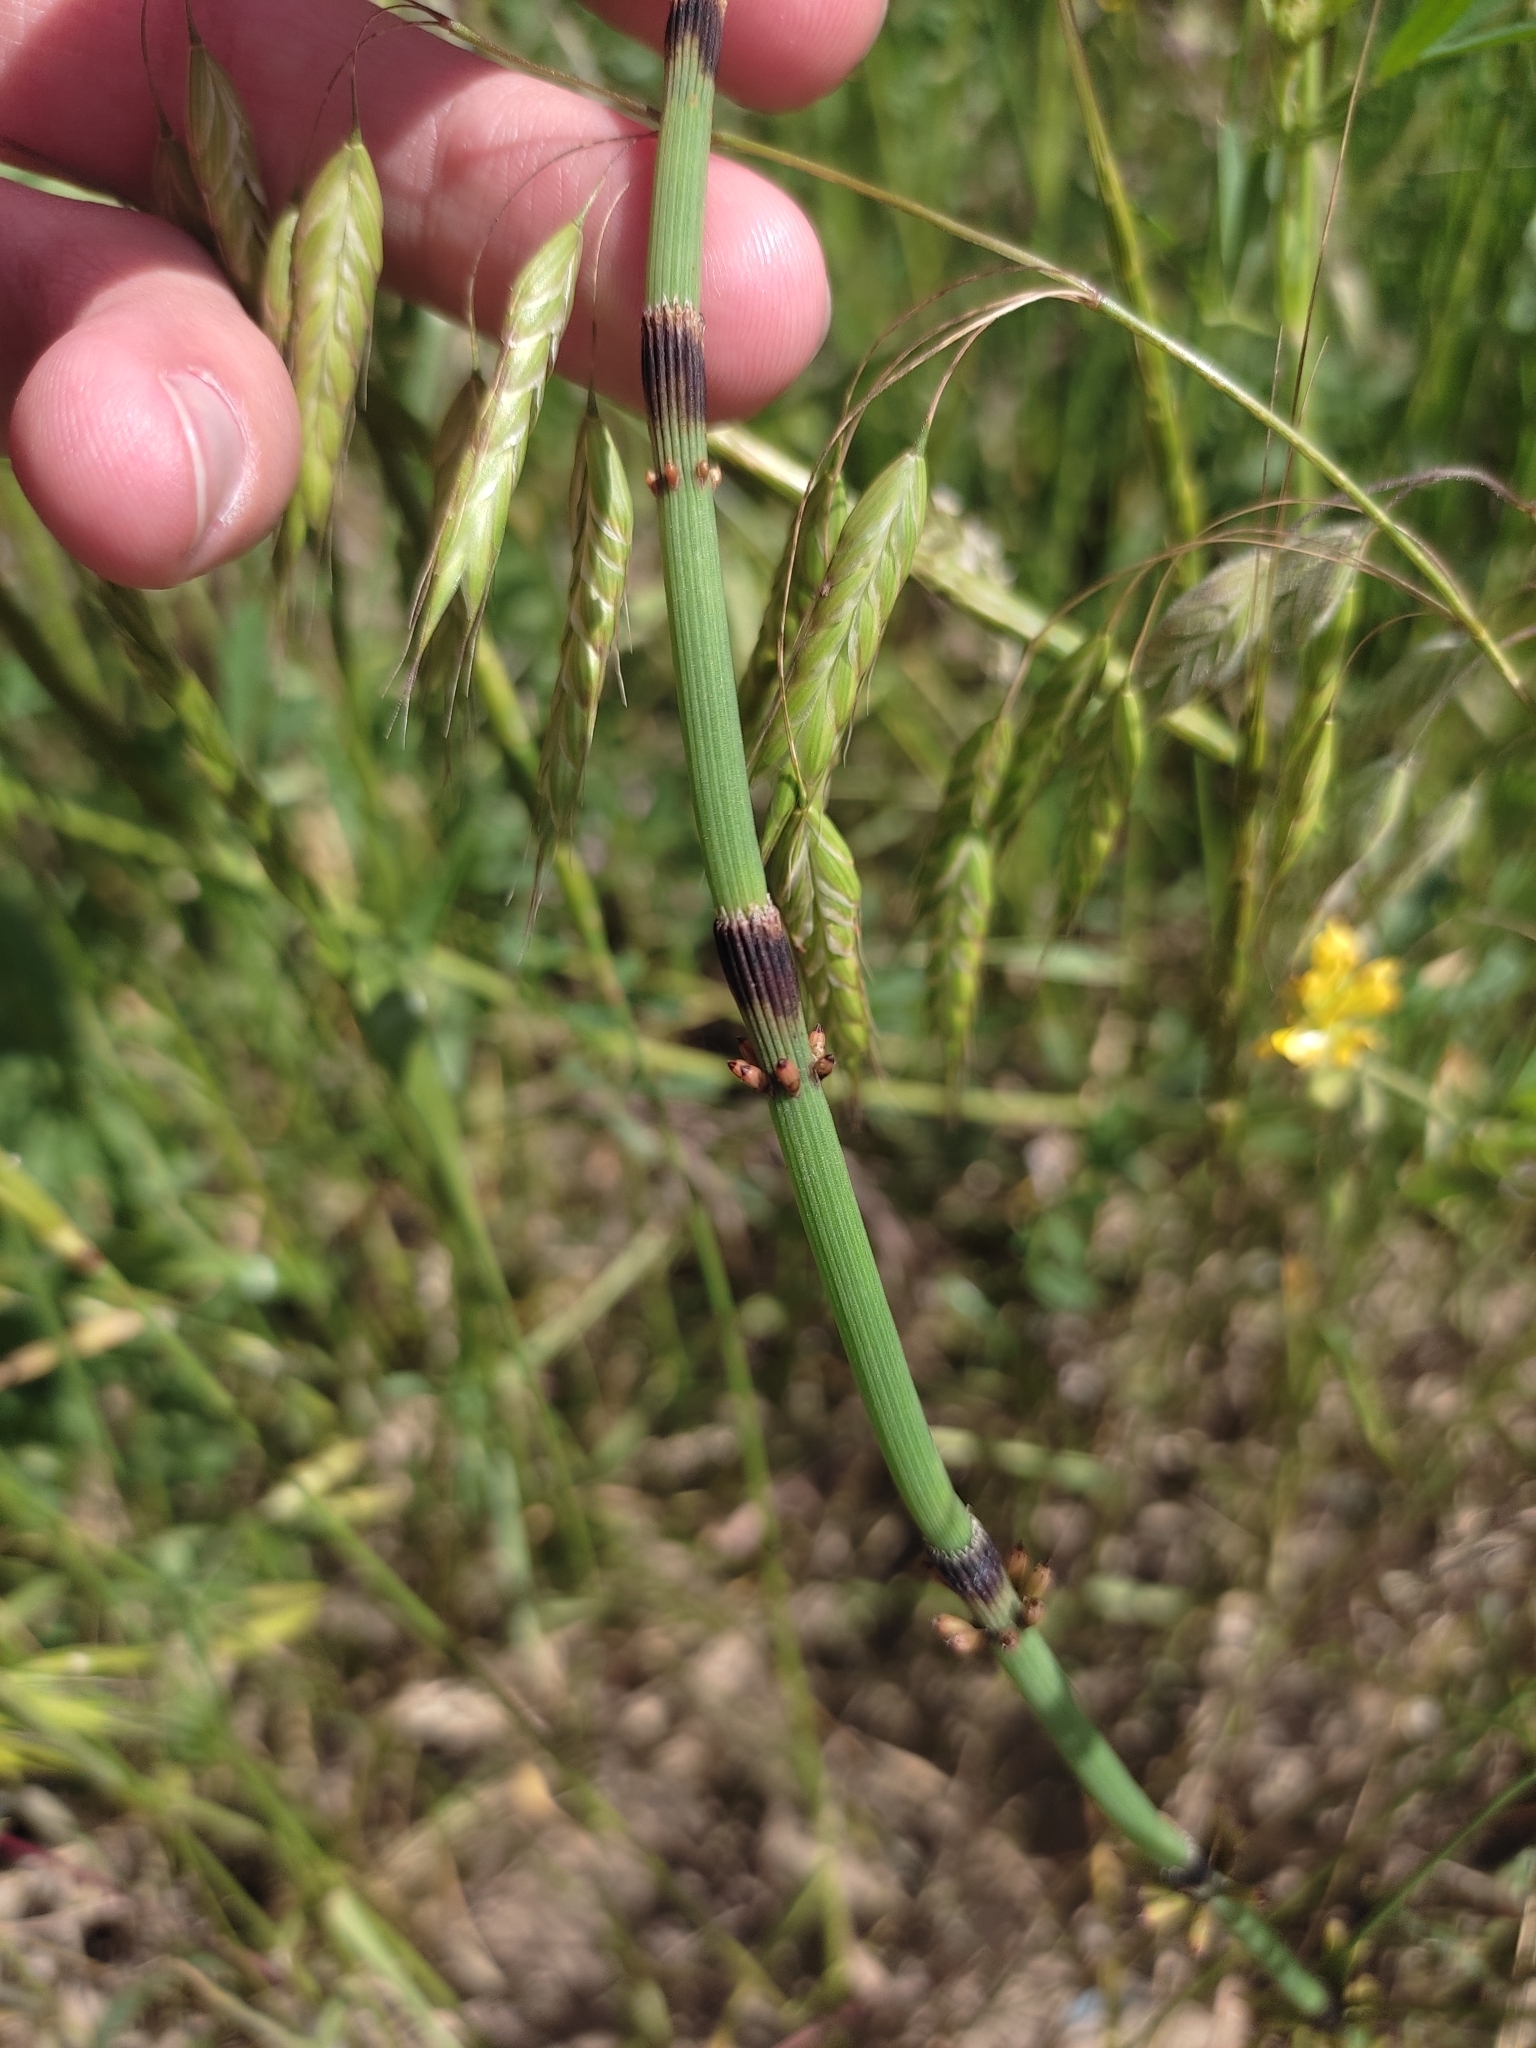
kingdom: Plantae
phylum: Tracheophyta
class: Polypodiopsida
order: Equisetales
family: Equisetaceae
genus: Equisetum
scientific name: Equisetum ramosissimum
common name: Branched horsetail
